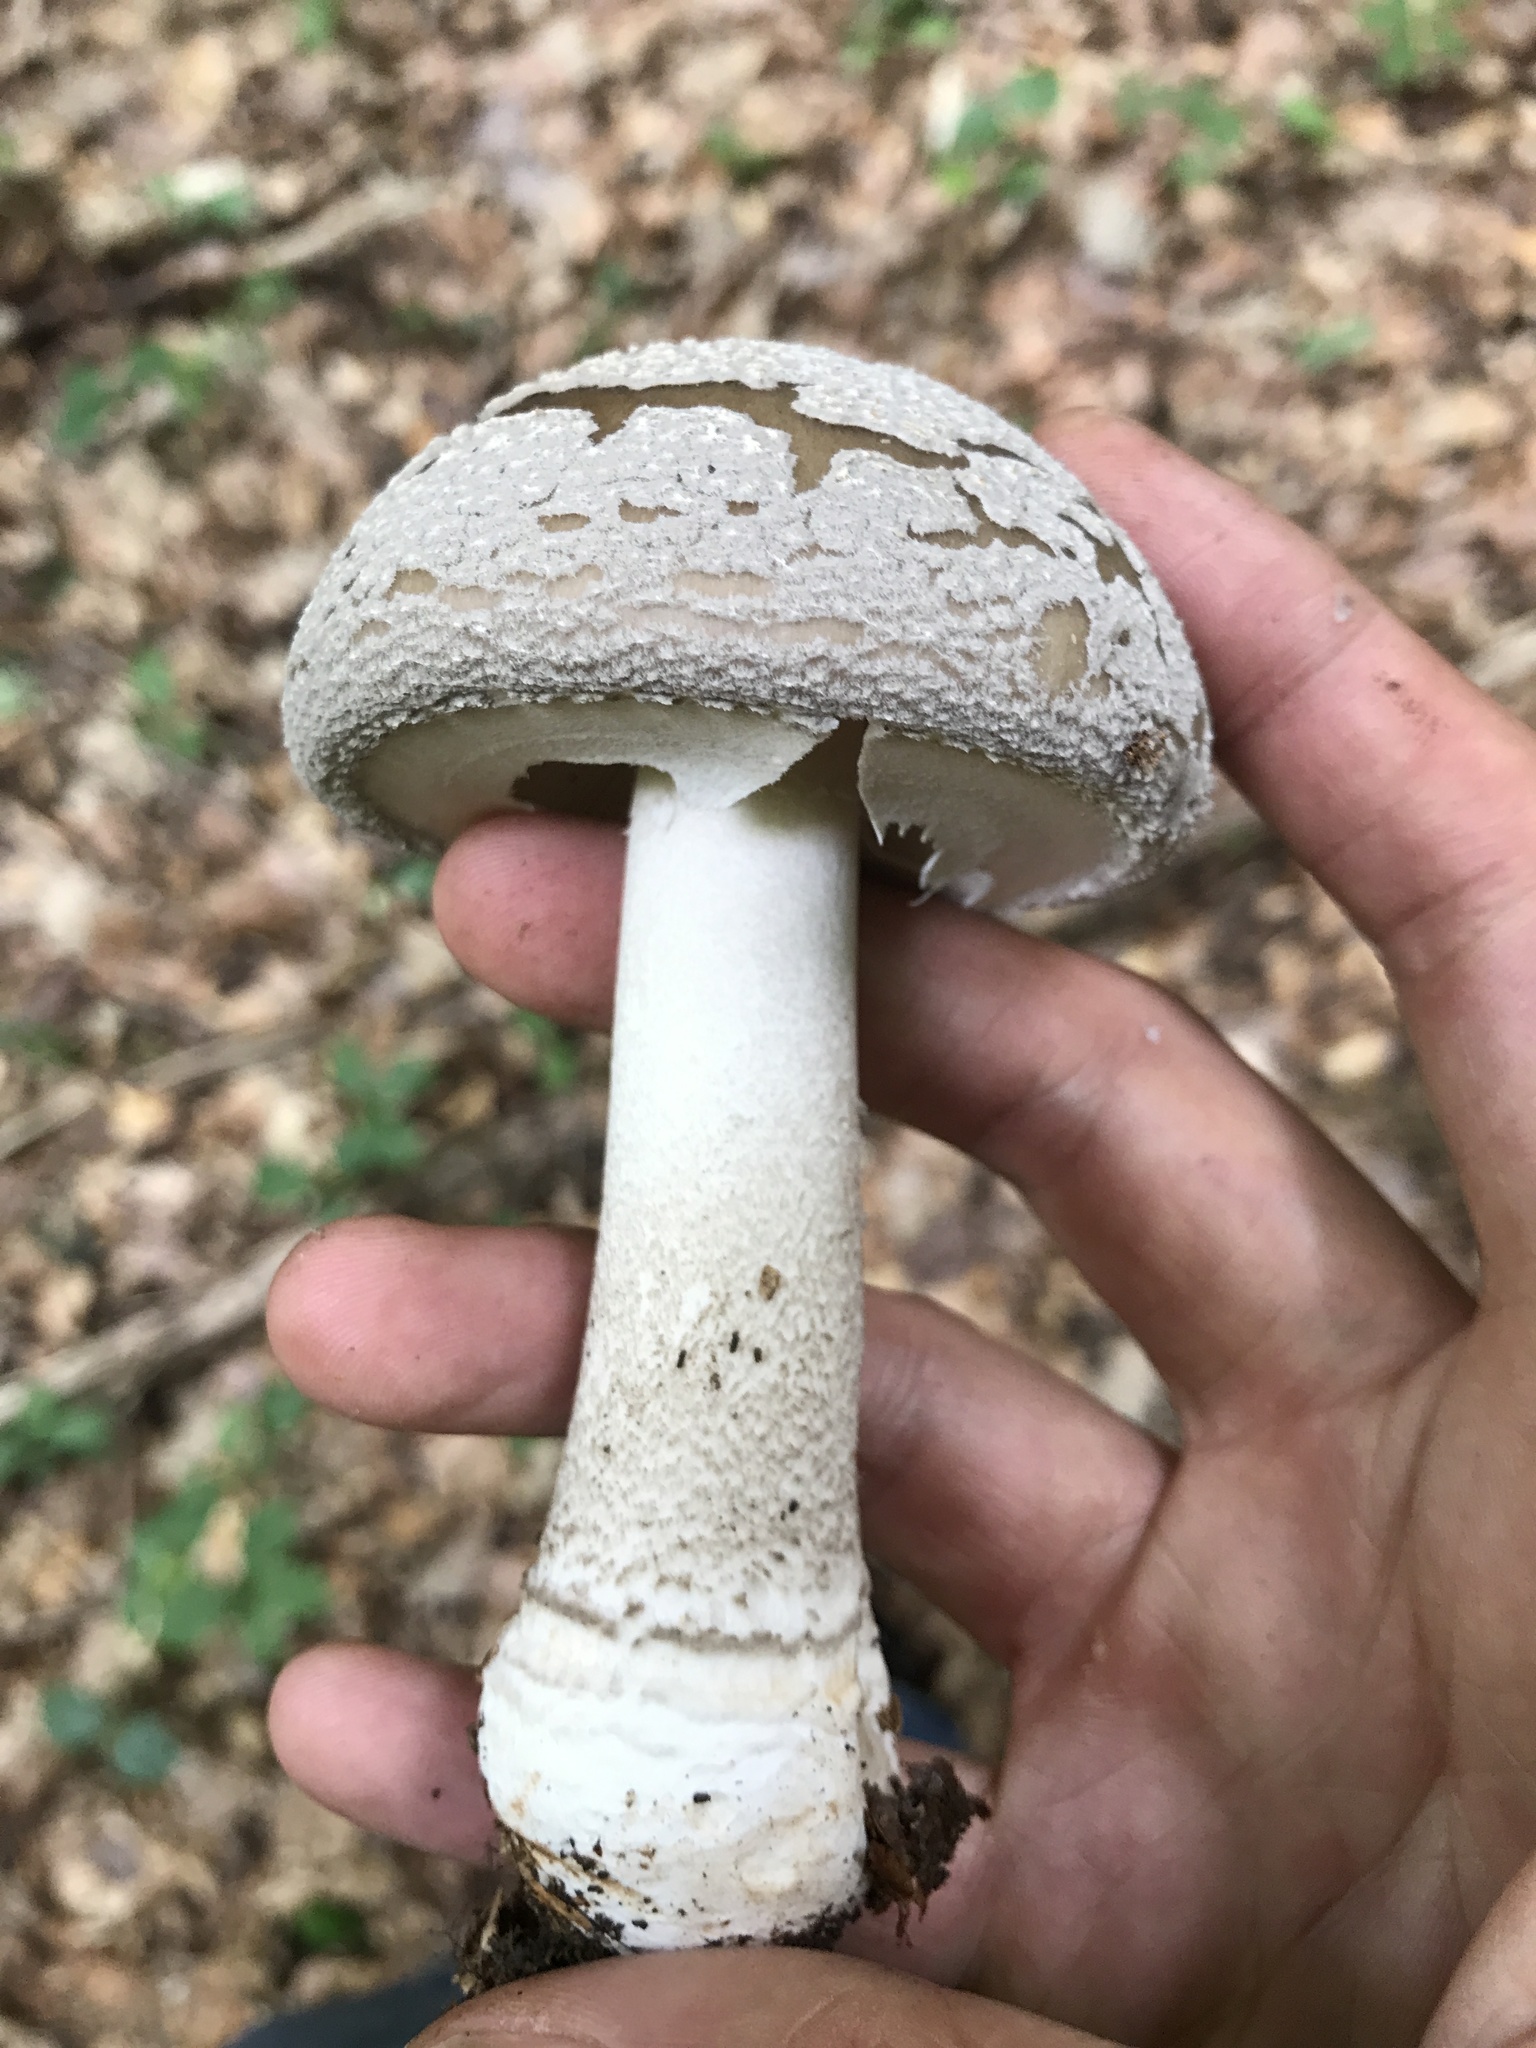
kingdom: Fungi
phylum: Basidiomycota
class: Agaricomycetes
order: Agaricales
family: Amanitaceae
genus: Amanita
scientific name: Amanita excelsa
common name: European false blusher
